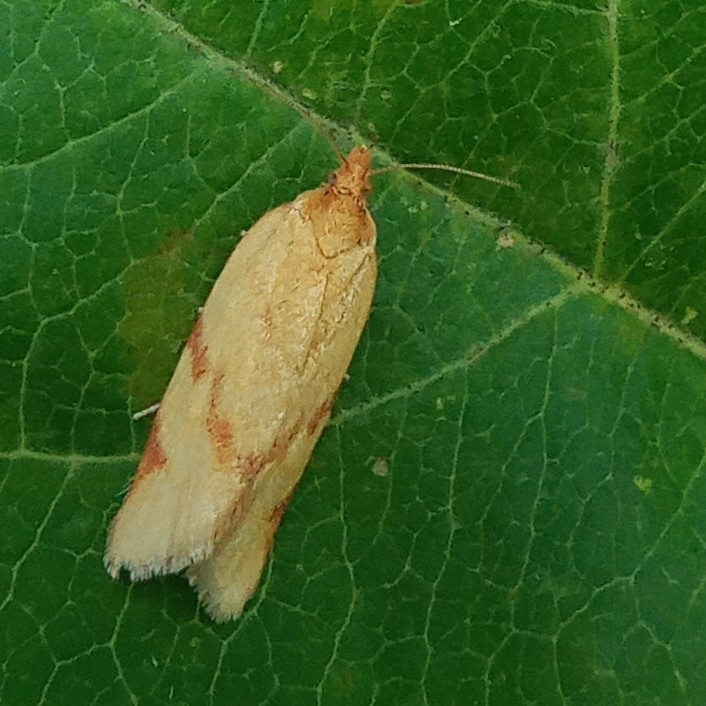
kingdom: Animalia
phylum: Arthropoda
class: Insecta
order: Lepidoptera
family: Tortricidae
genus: Clepsis
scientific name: Clepsis pallidana
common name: Sheep's-bit conch
